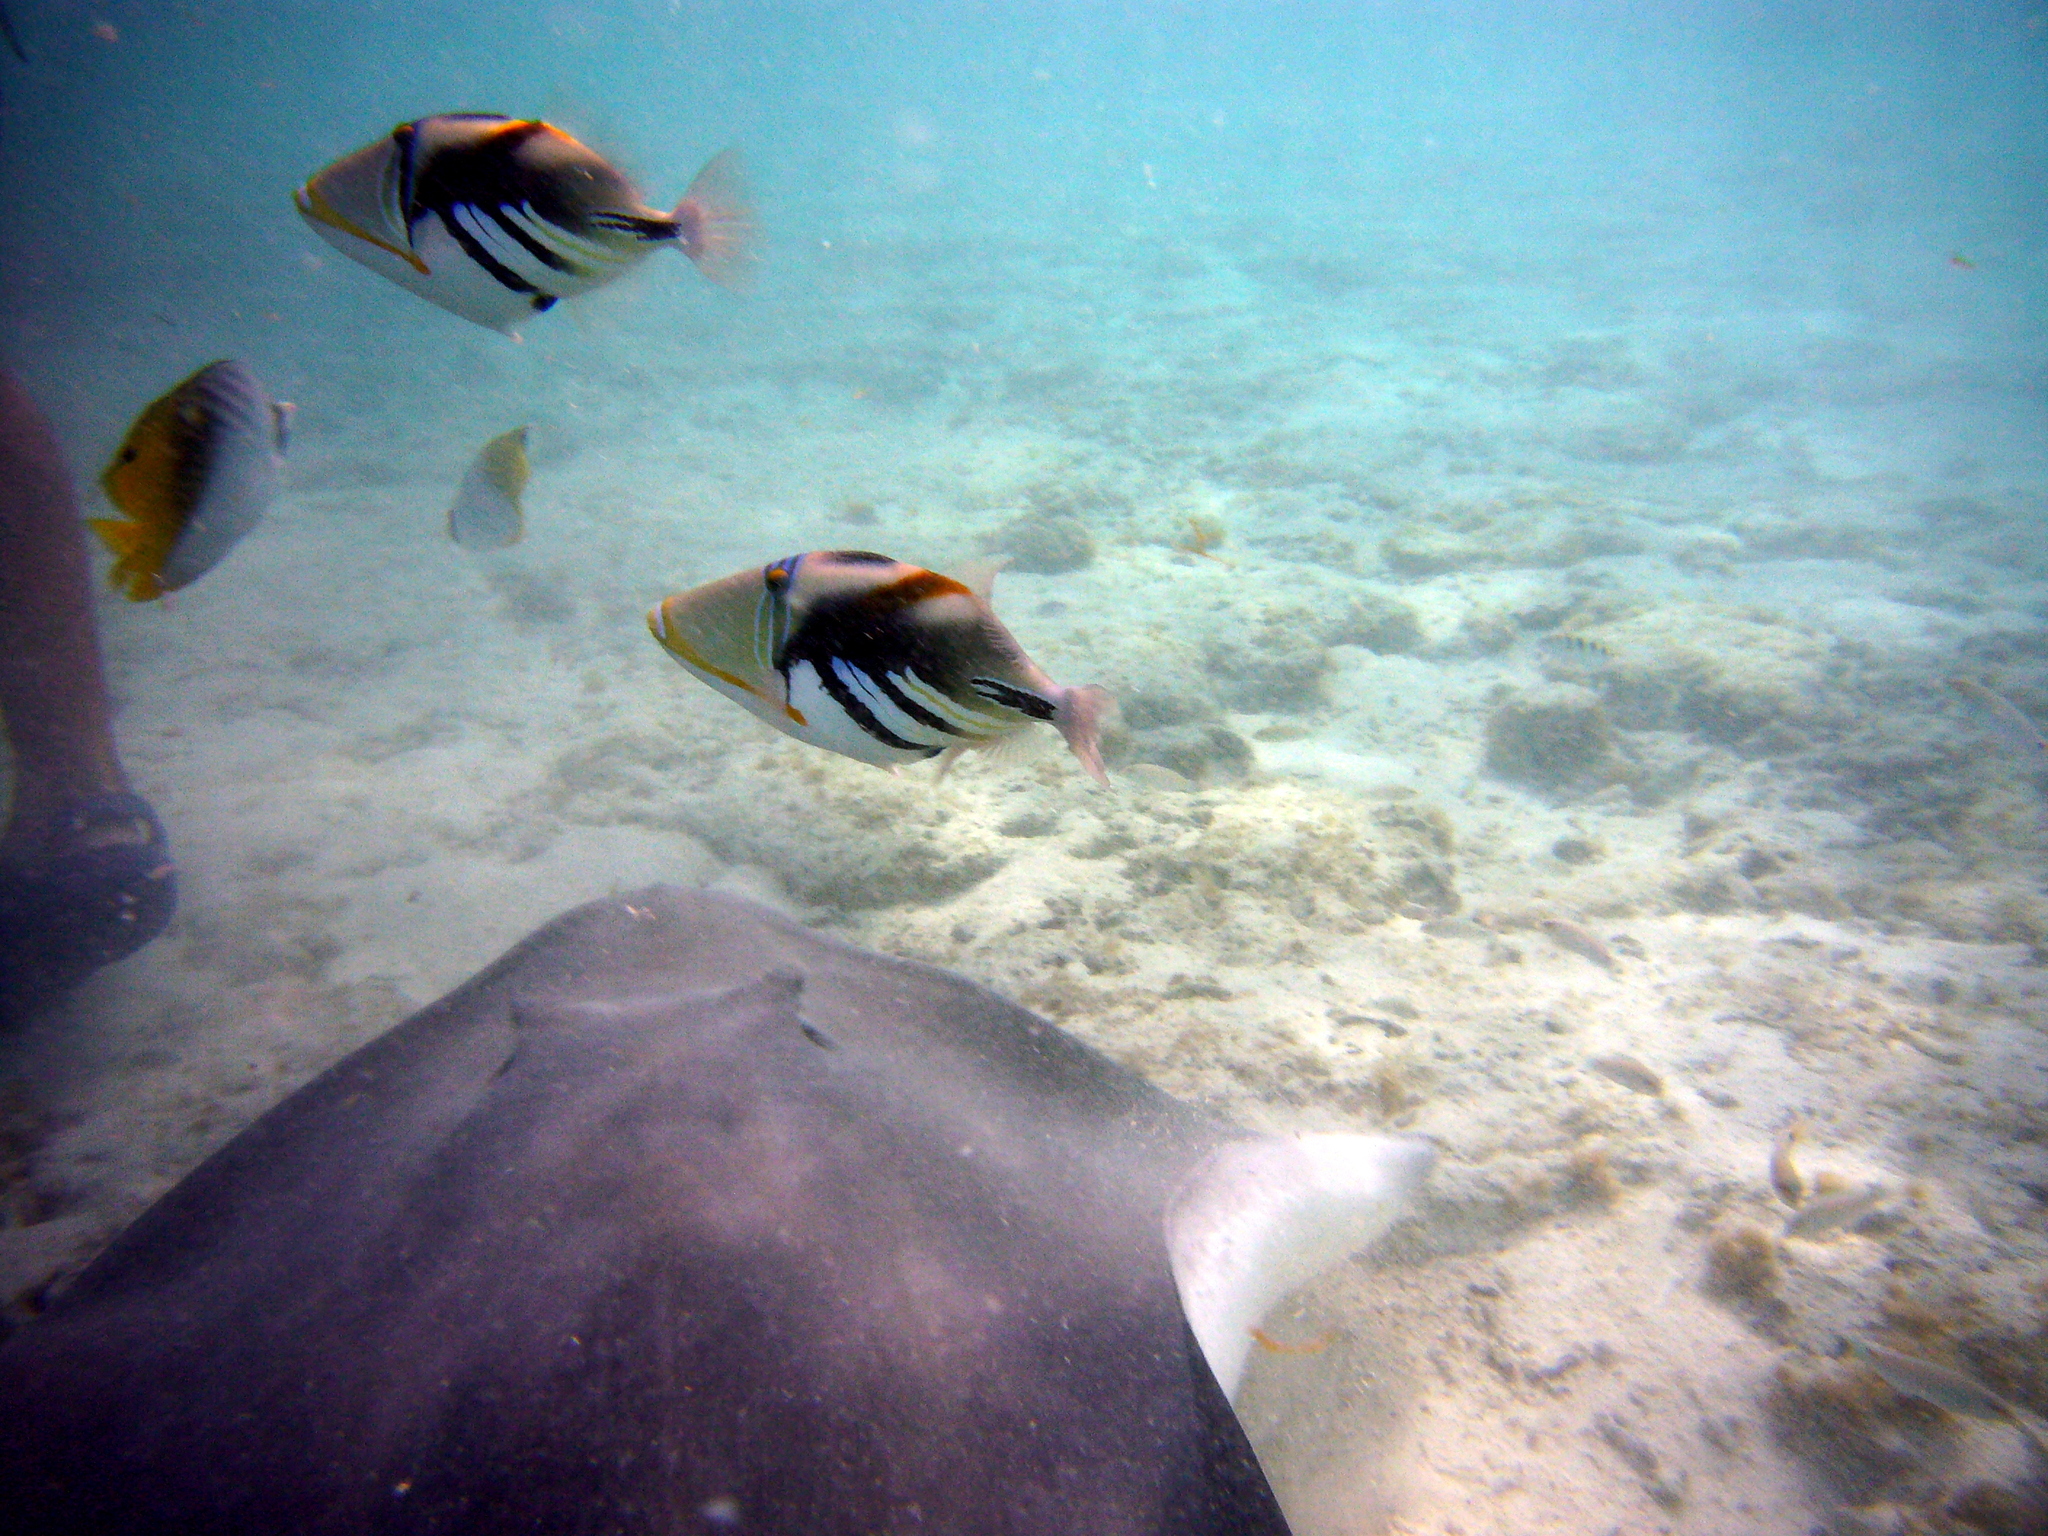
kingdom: Animalia
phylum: Chordata
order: Tetraodontiformes
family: Balistidae
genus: Rhinecanthus
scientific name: Rhinecanthus aculeatus
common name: White-banded triggerfish
